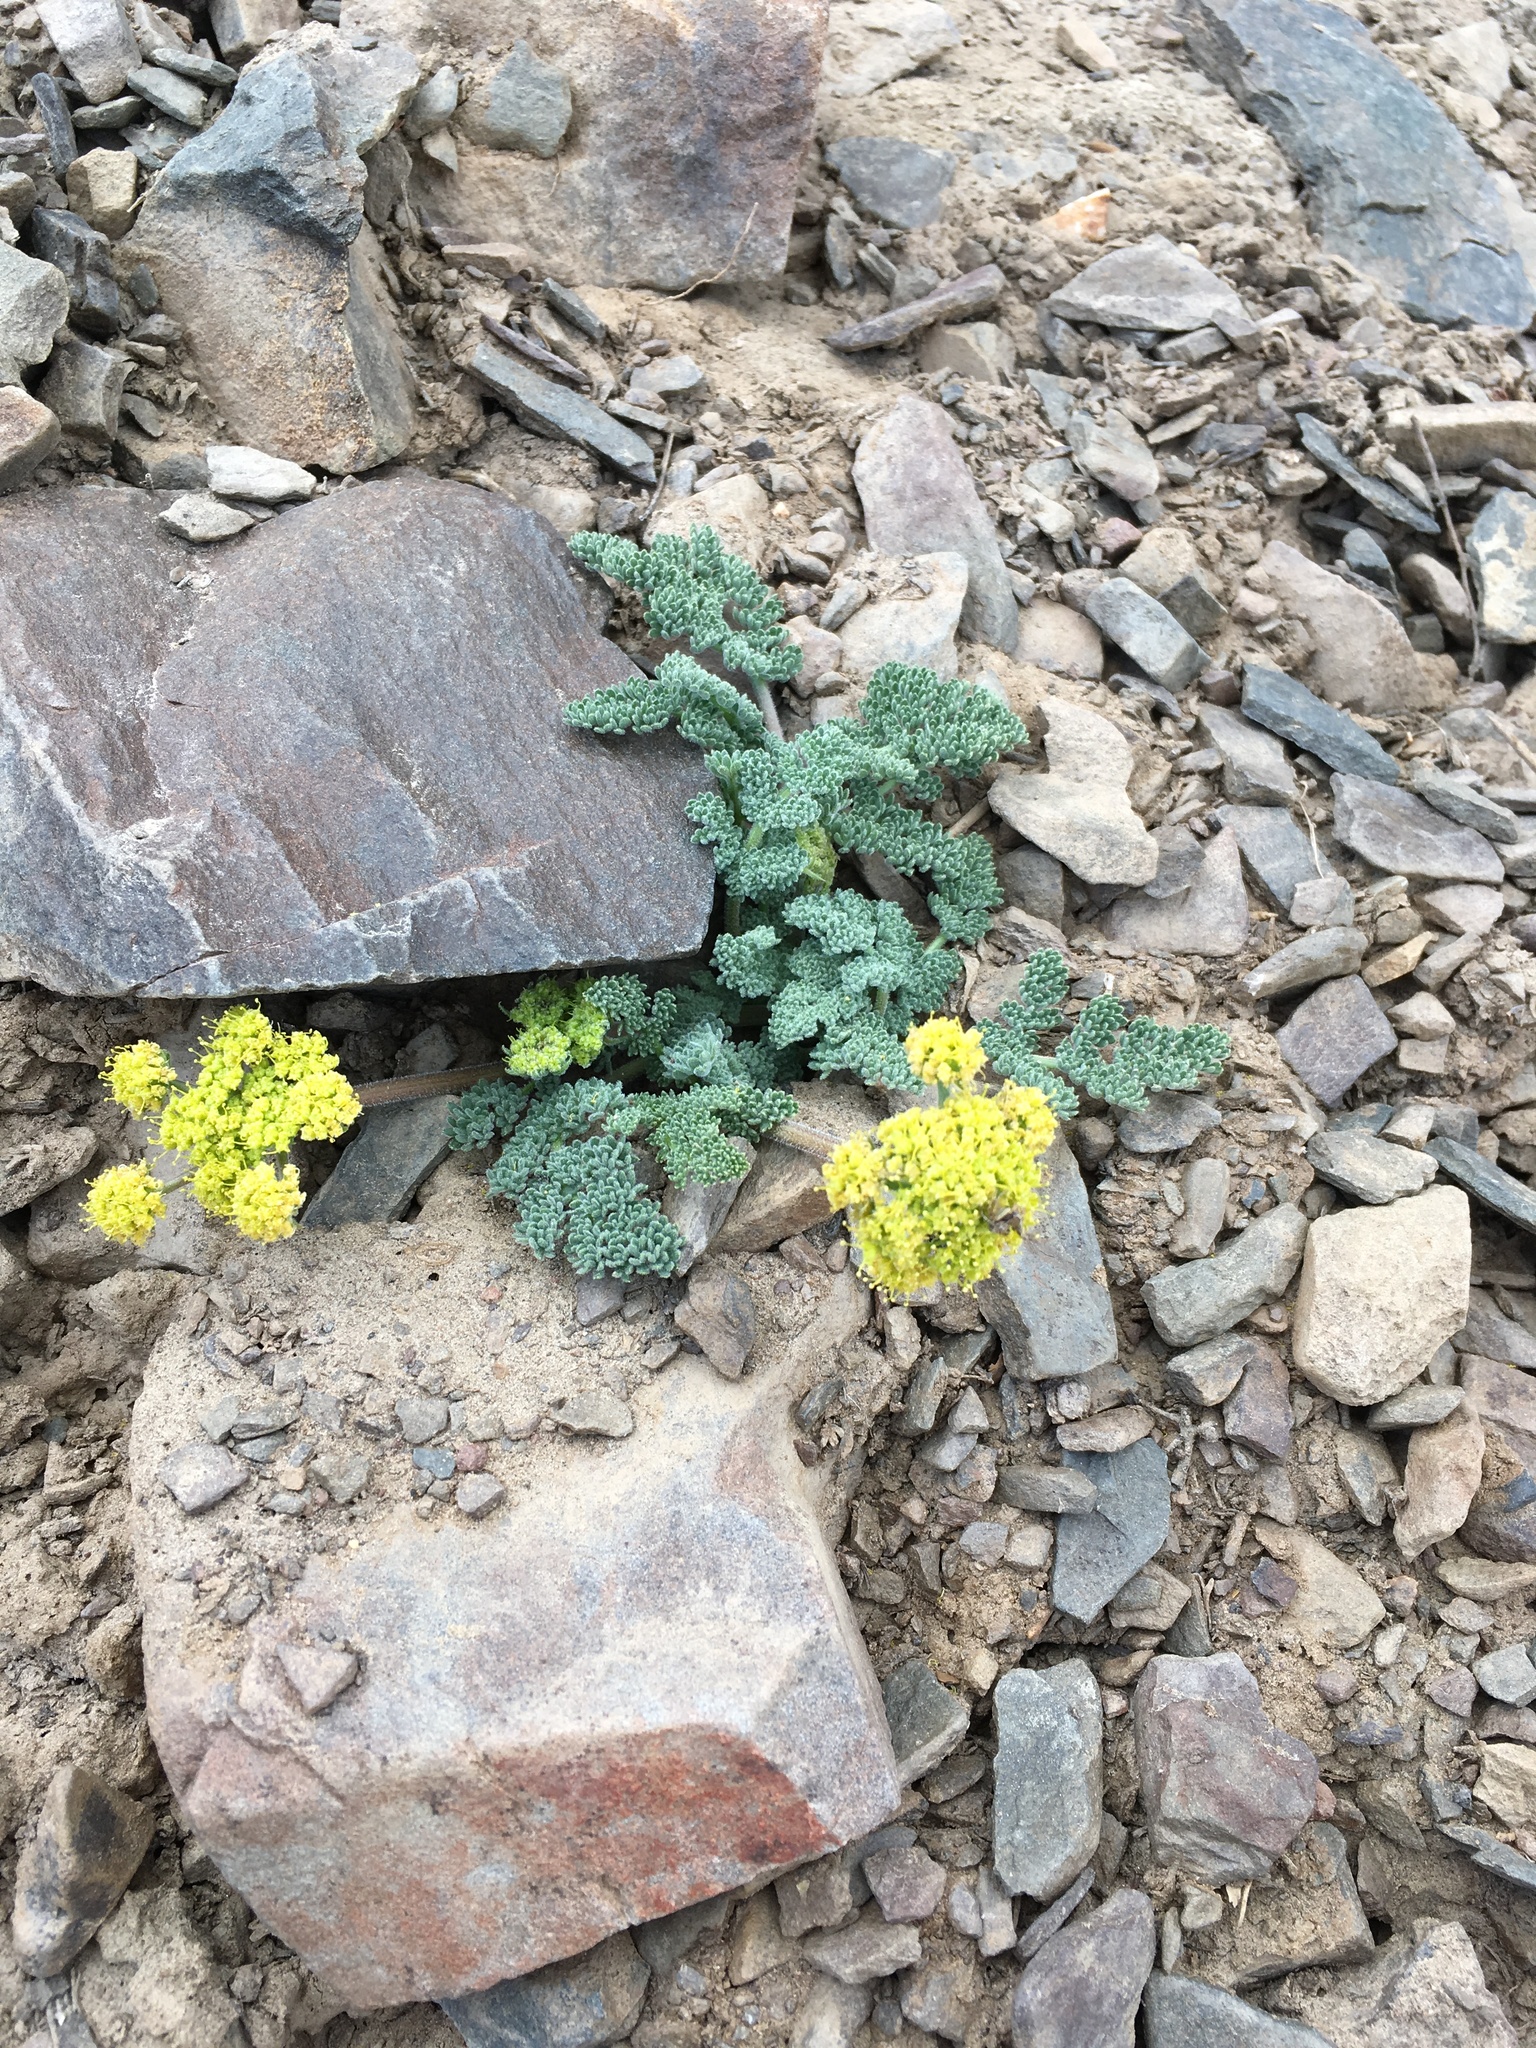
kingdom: Plantae
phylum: Tracheophyta
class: Magnoliopsida
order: Apiales
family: Apiaceae
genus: Lomatium
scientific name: Lomatium foeniculaceum
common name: Desert-parsley
